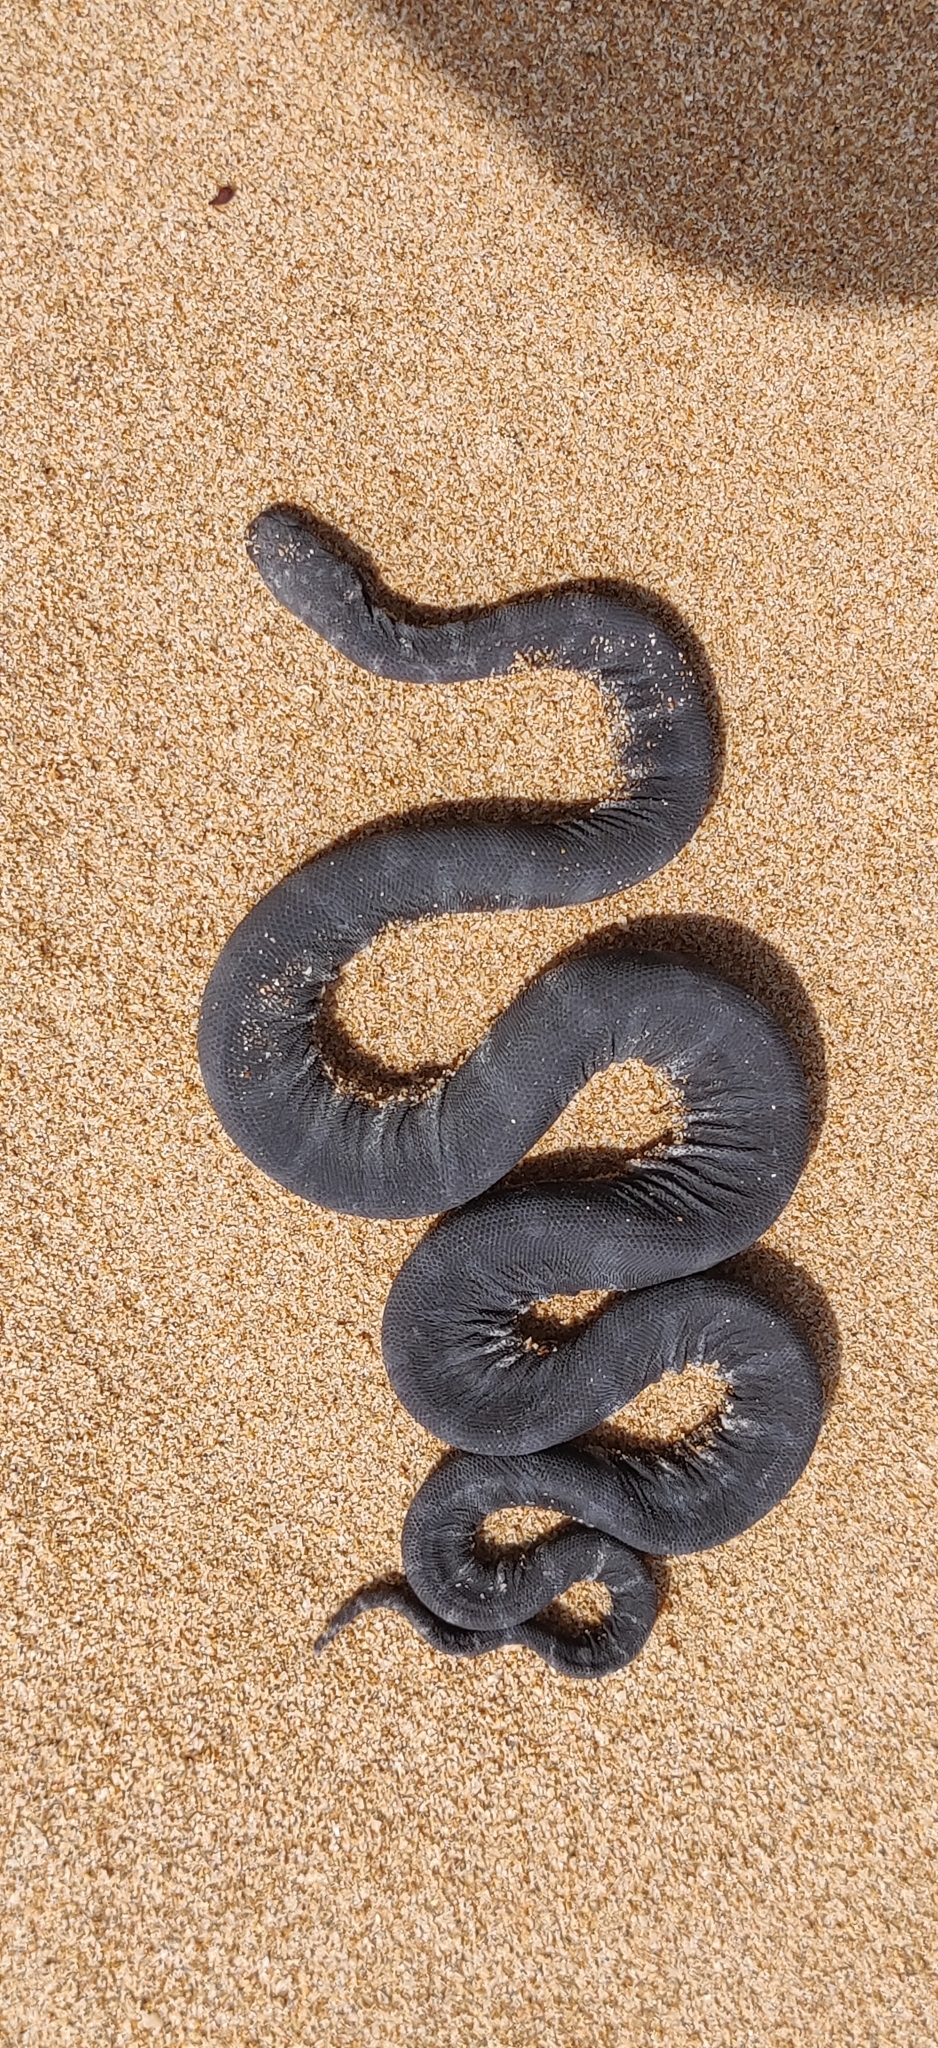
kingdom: Animalia
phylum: Chordata
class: Squamata
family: Acrochordidae
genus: Acrochordus
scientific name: Acrochordus granulatus
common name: Little filesnake
